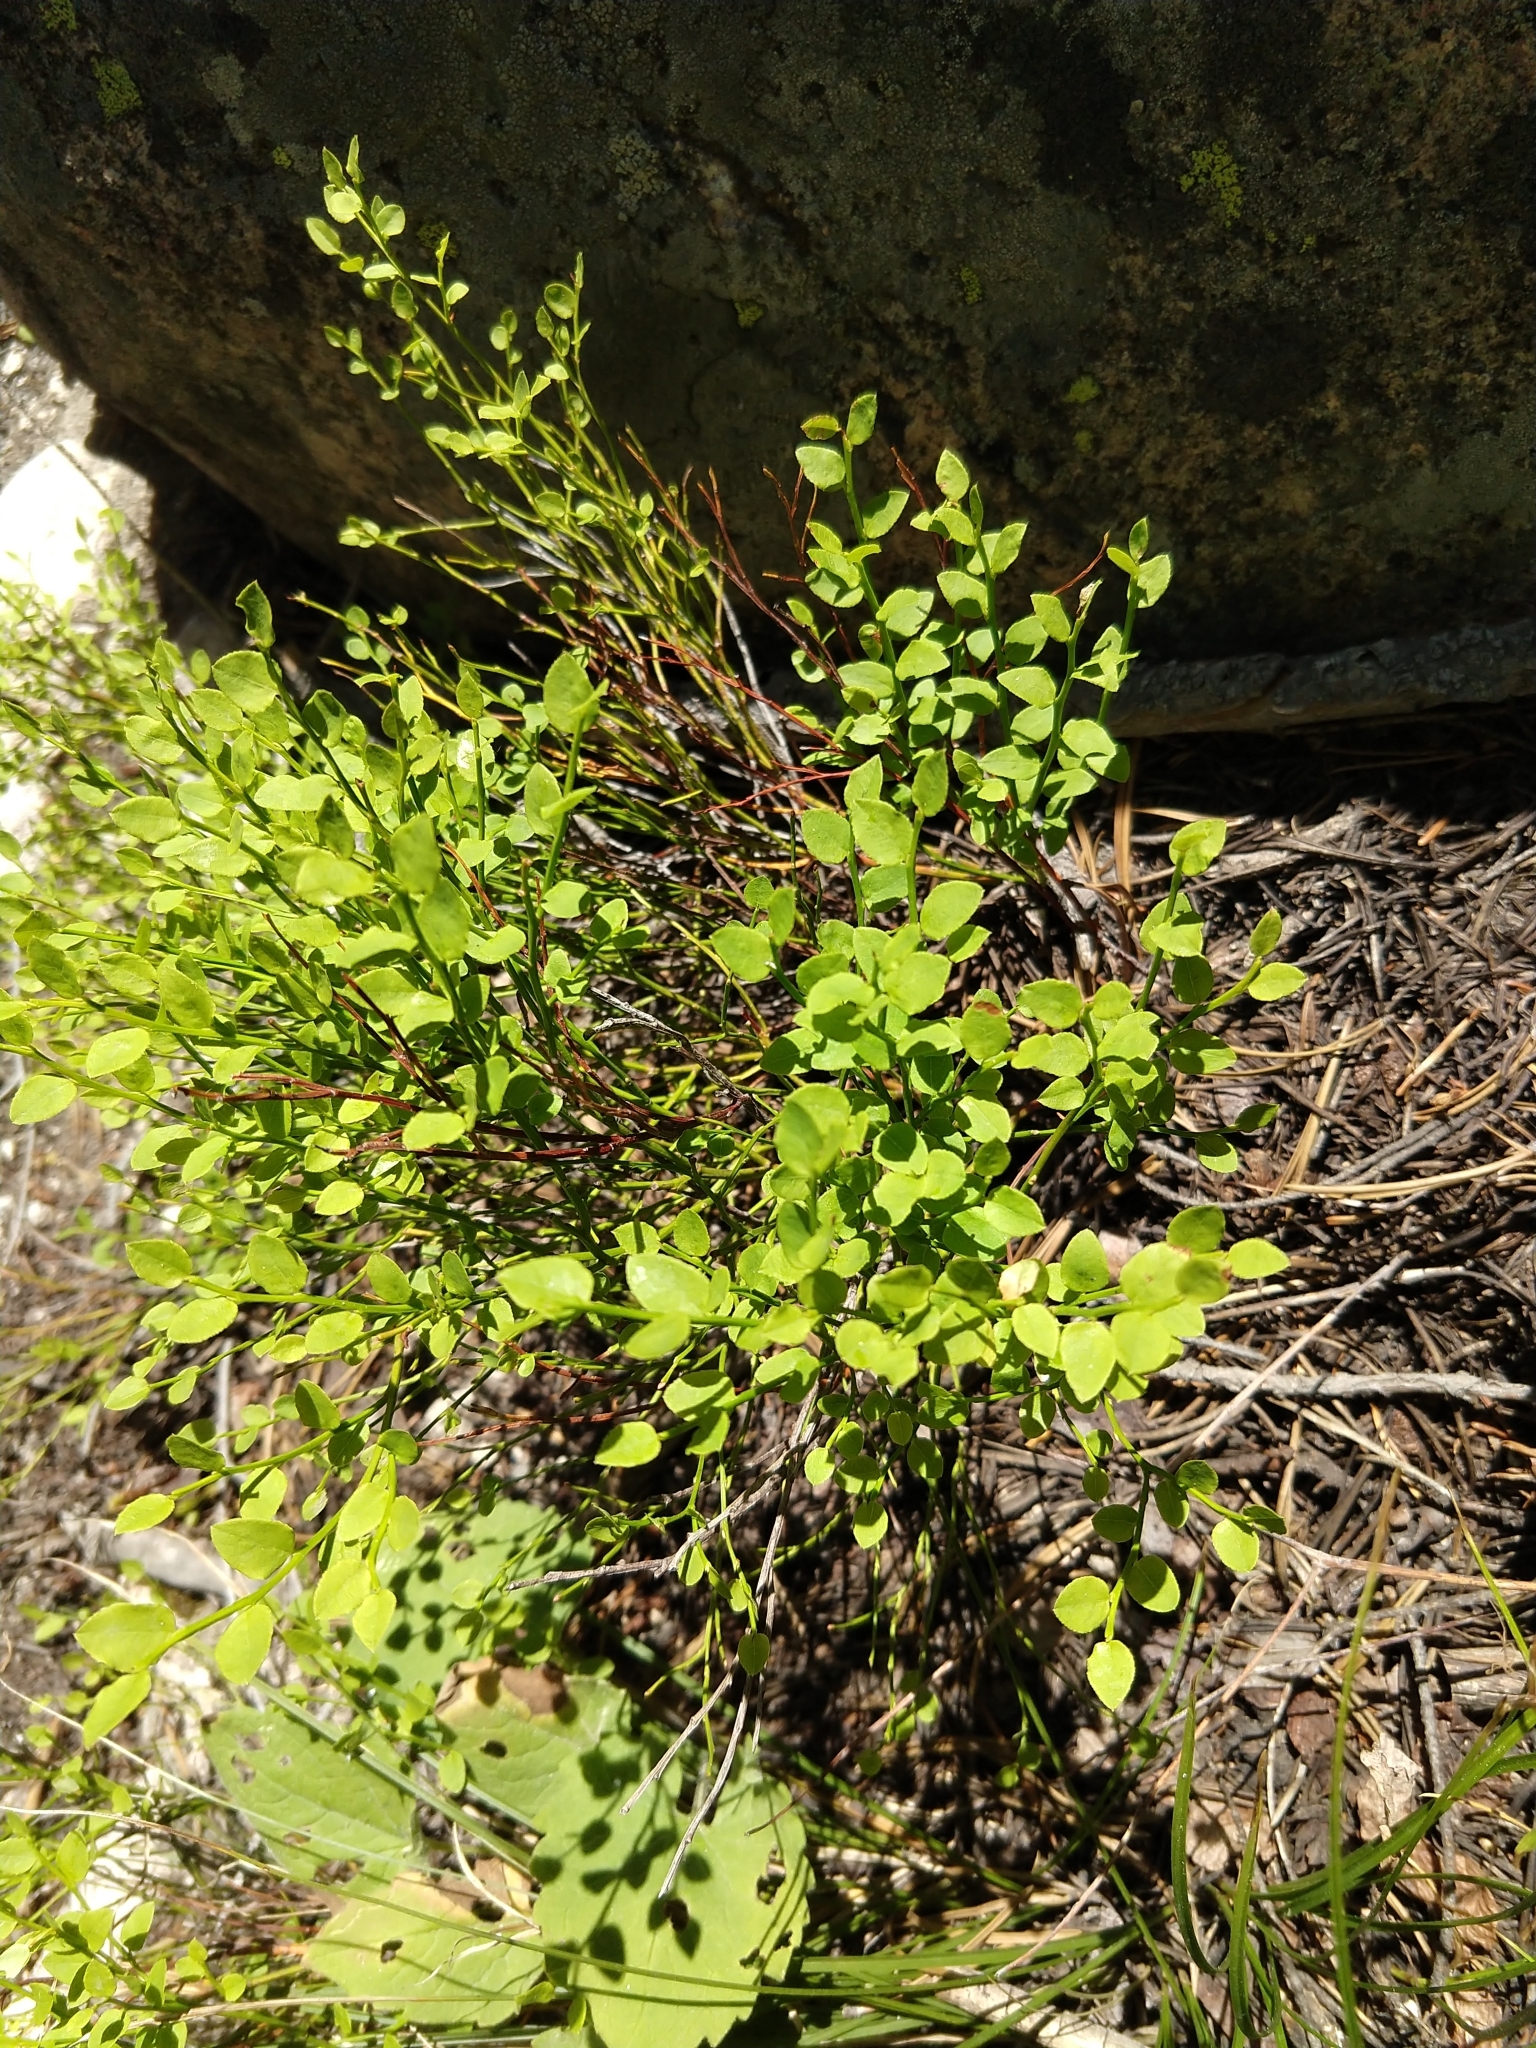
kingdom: Plantae
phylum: Tracheophyta
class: Magnoliopsida
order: Ericales
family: Ericaceae
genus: Vaccinium
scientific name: Vaccinium myrtillus
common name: Bilberry
